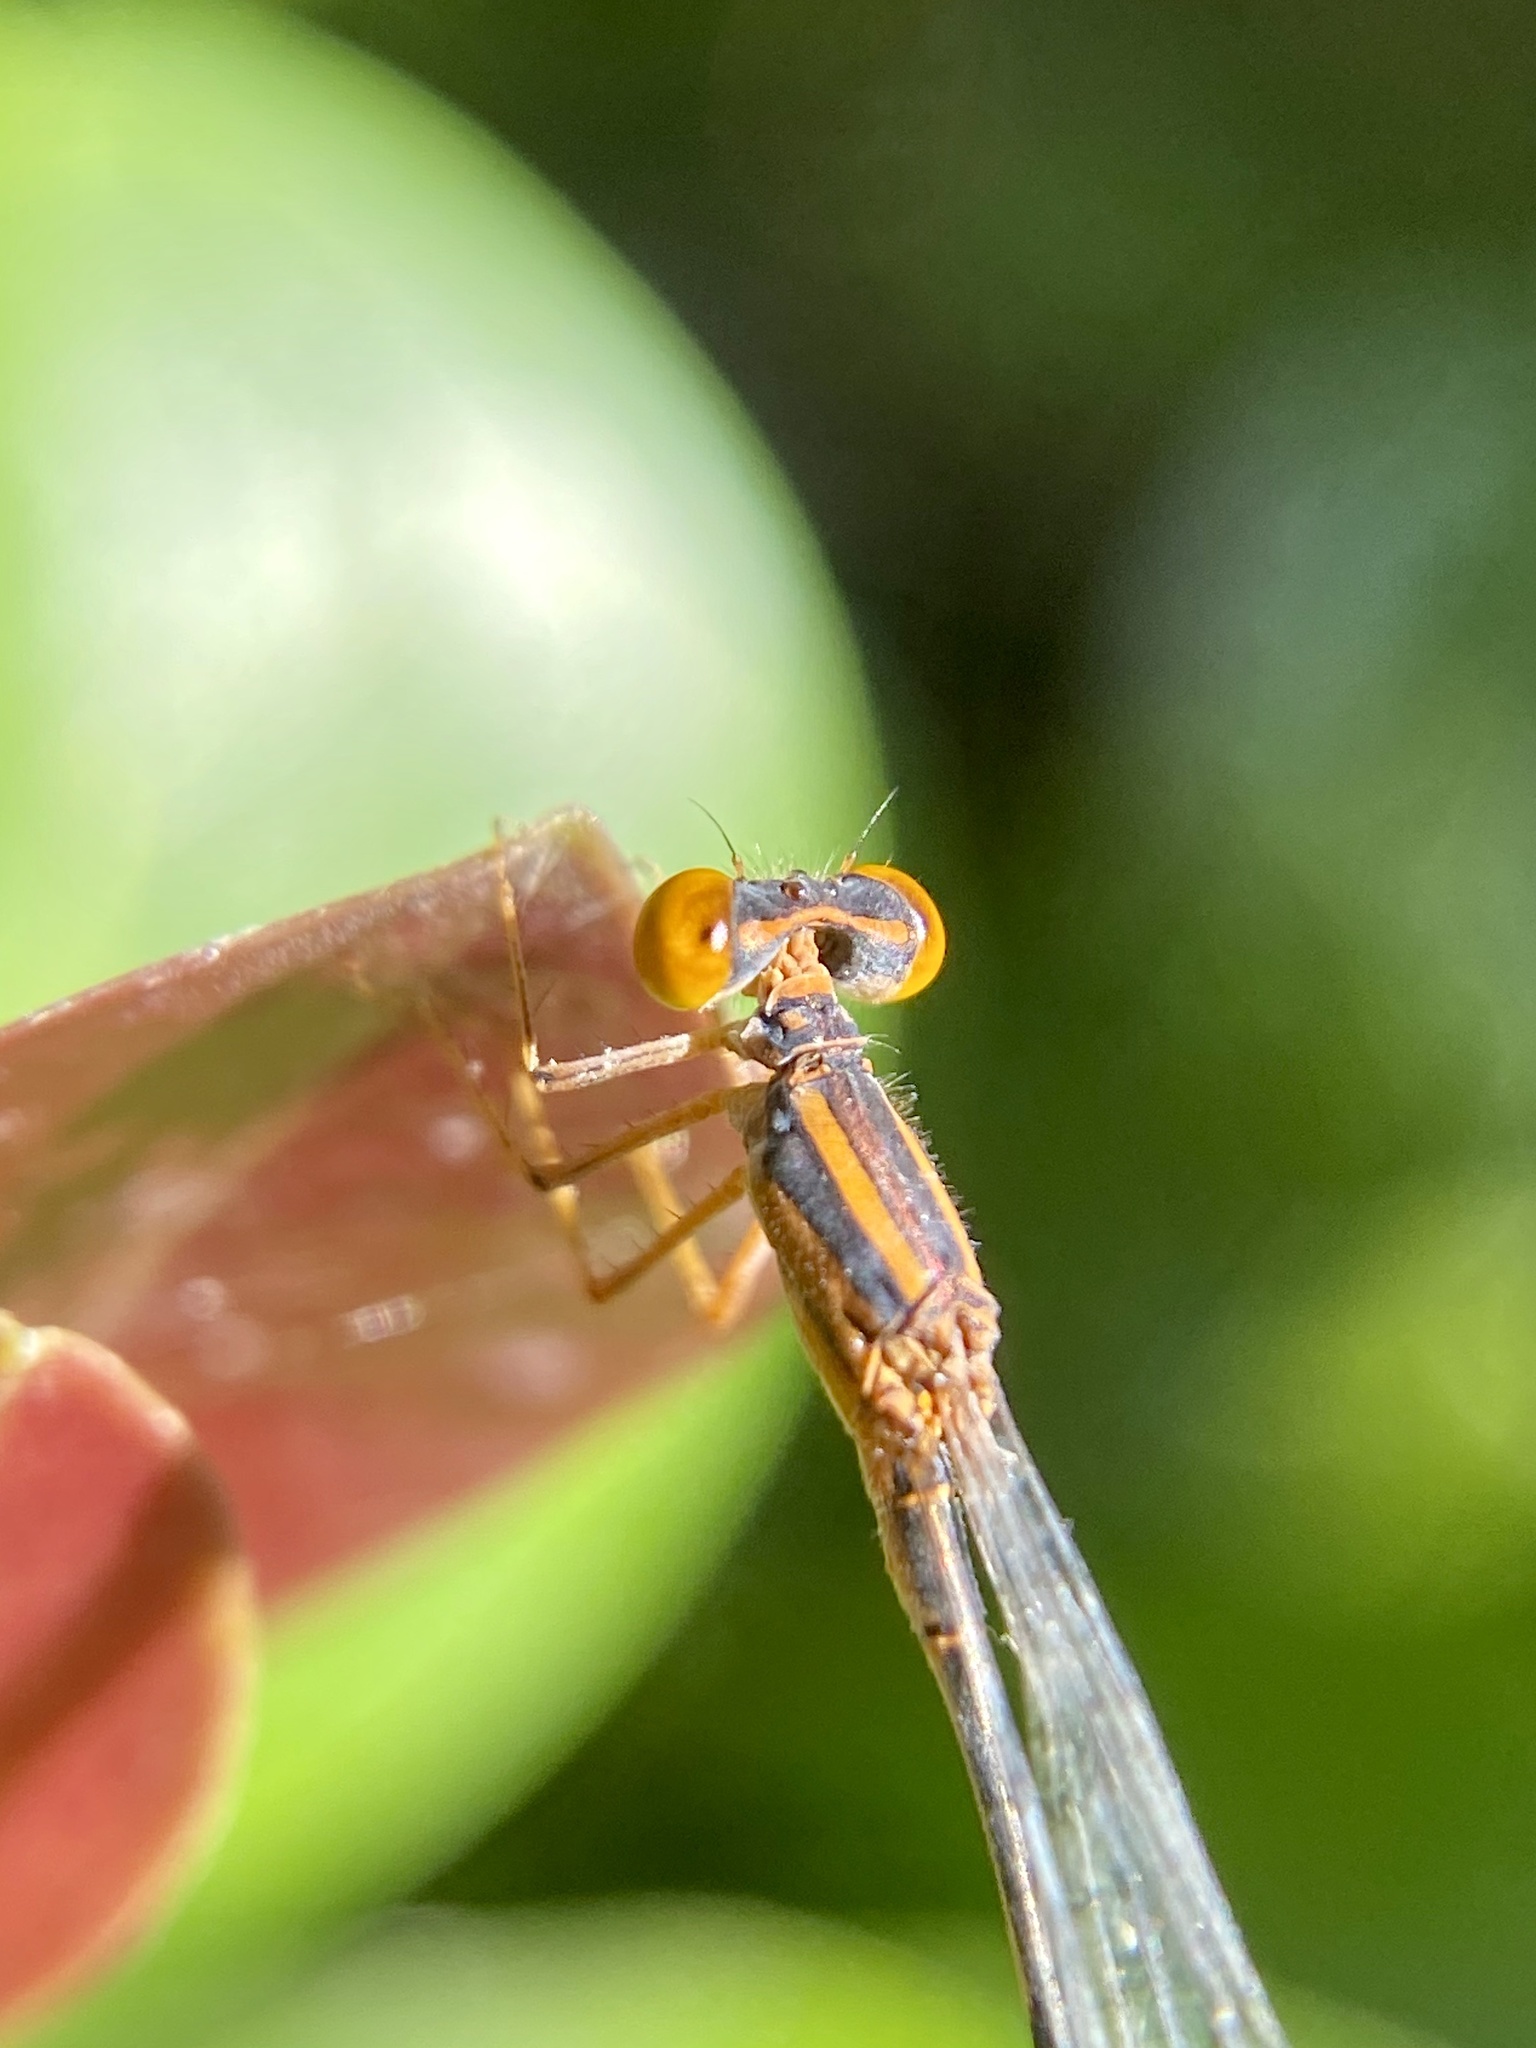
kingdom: Animalia
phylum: Arthropoda
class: Insecta
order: Odonata
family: Coenagrionidae
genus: Enallagma
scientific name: Enallagma pollutum
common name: Florida bluet
